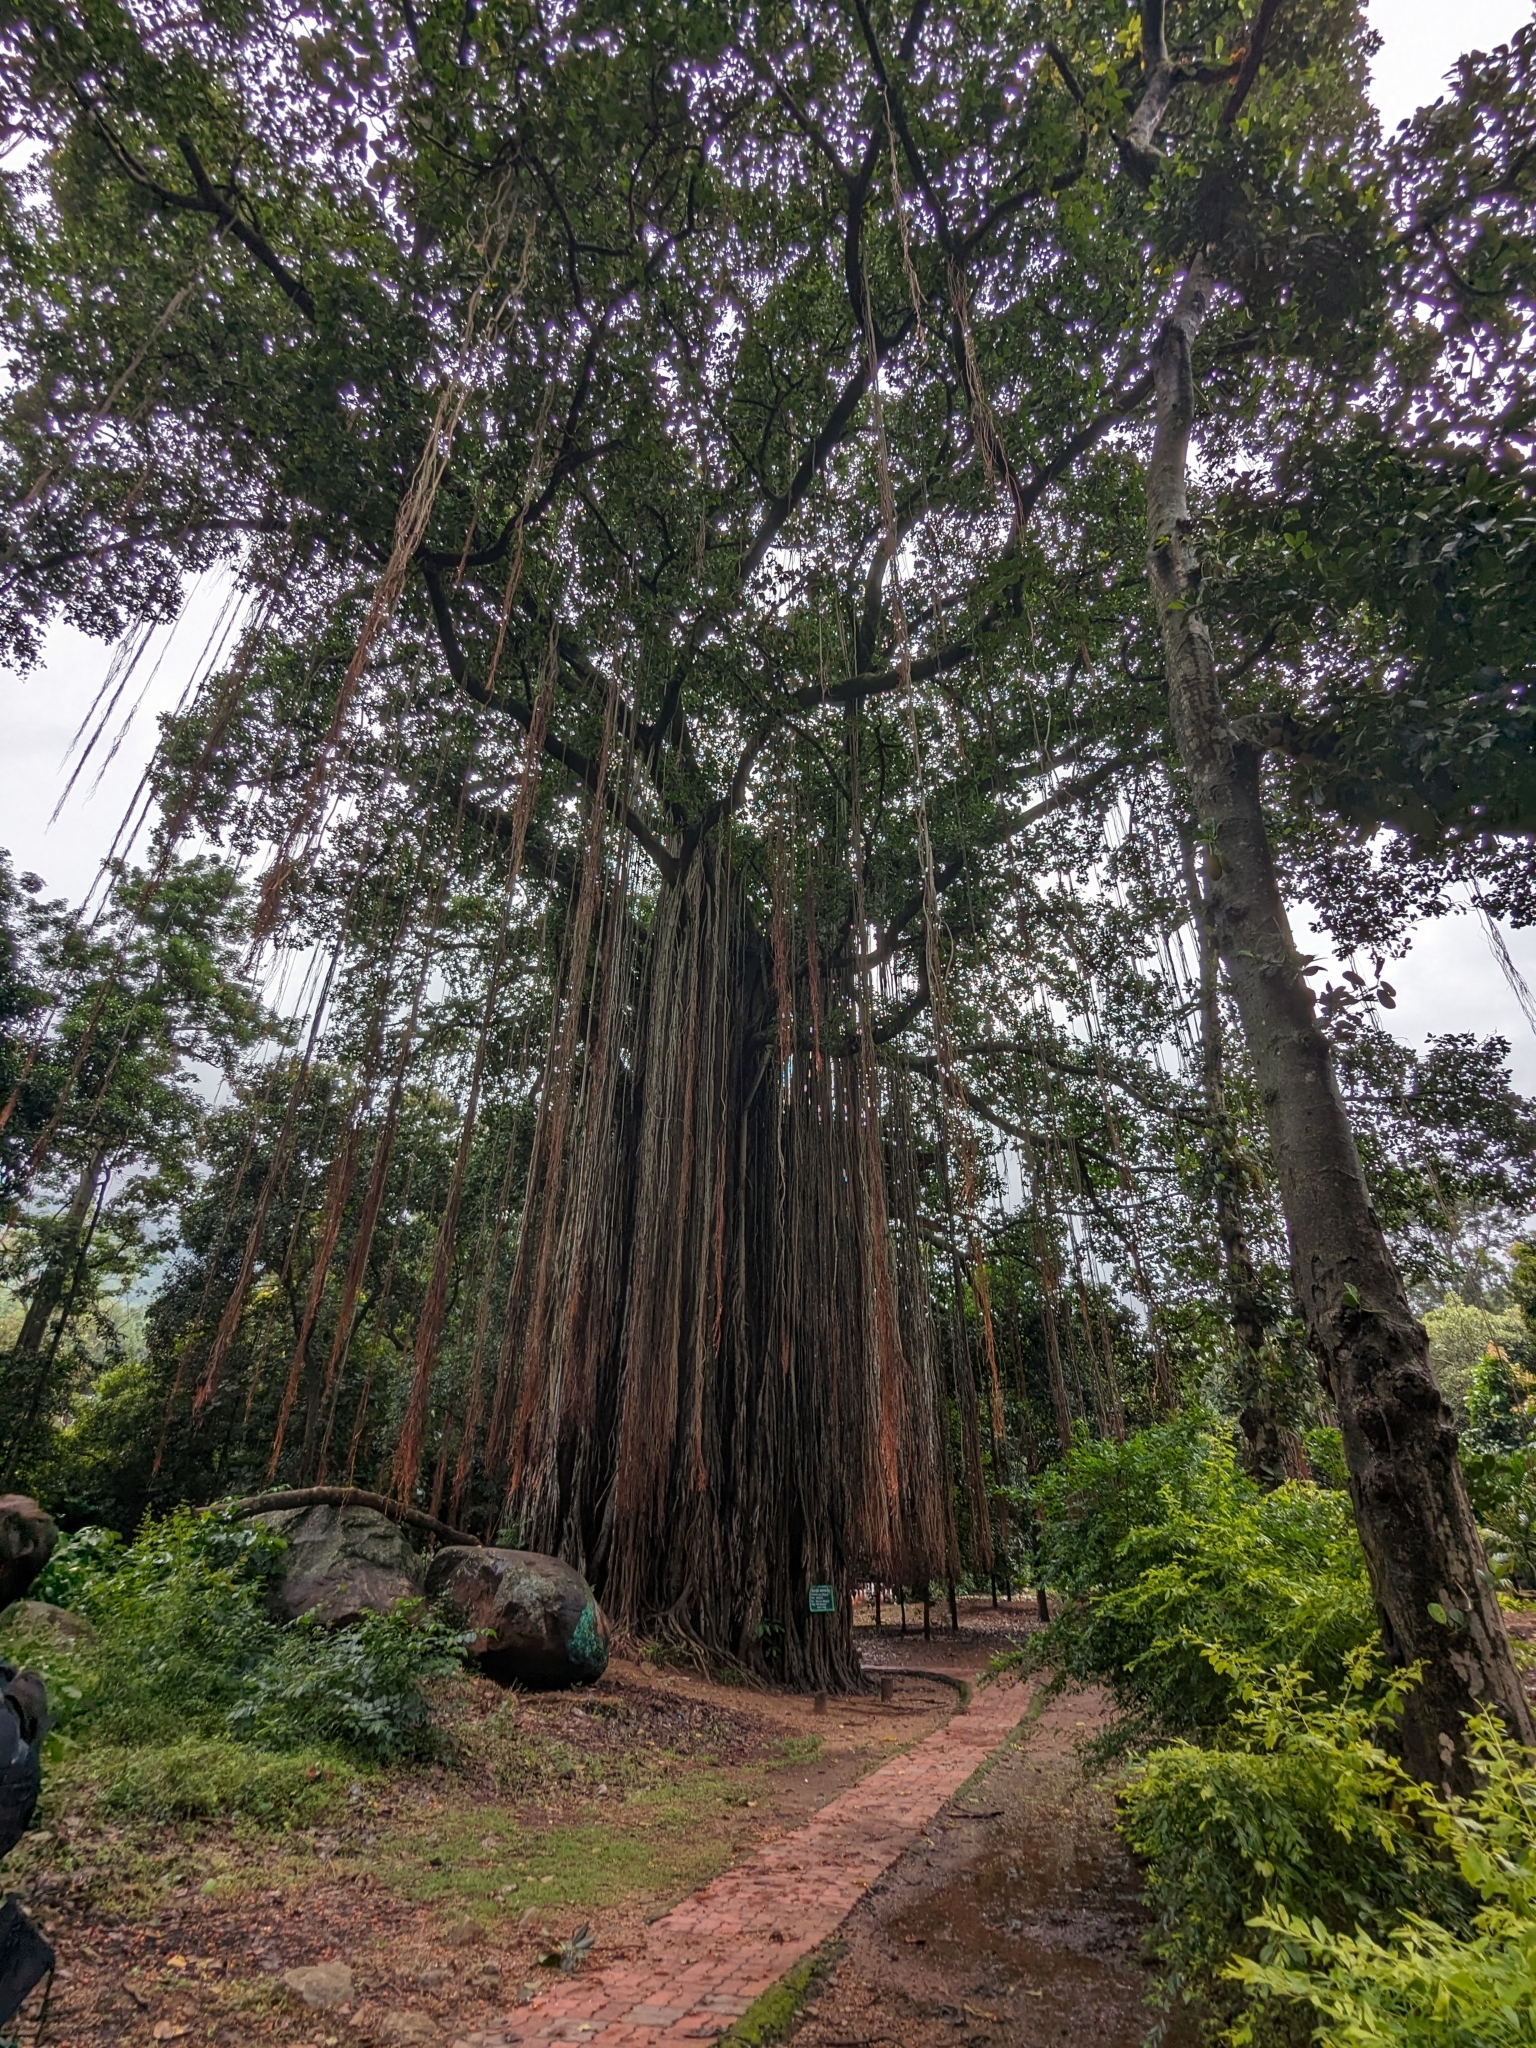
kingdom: Plantae
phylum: Tracheophyta
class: Magnoliopsida
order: Rosales
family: Moraceae
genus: Ficus
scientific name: Ficus benghalensis
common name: Indian banyan
